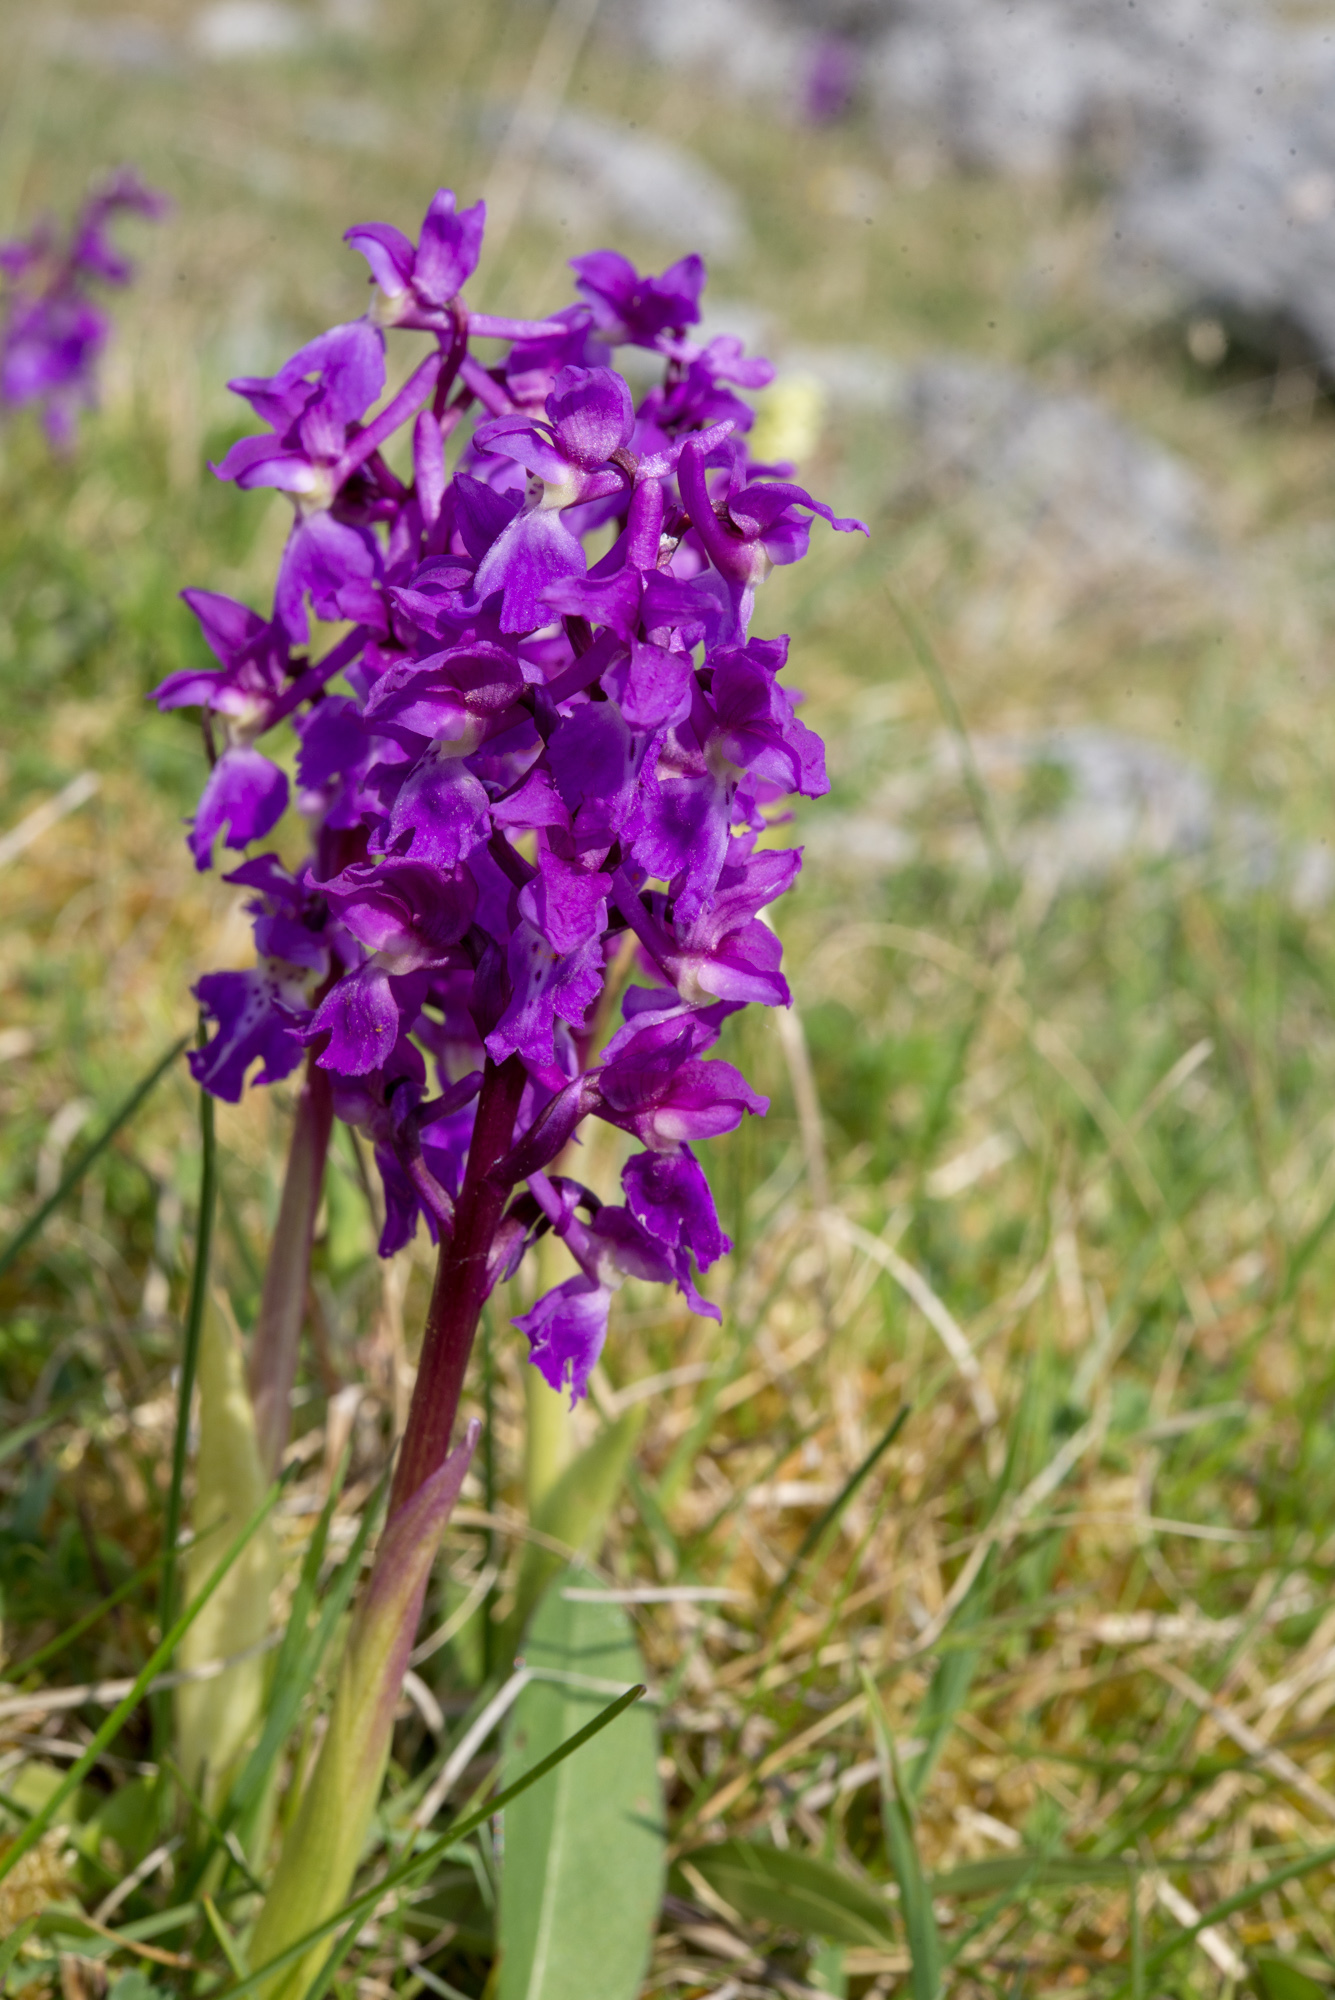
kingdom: Plantae
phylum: Tracheophyta
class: Liliopsida
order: Asparagales
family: Orchidaceae
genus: Orchis
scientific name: Orchis mascula
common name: Early-purple orchid
